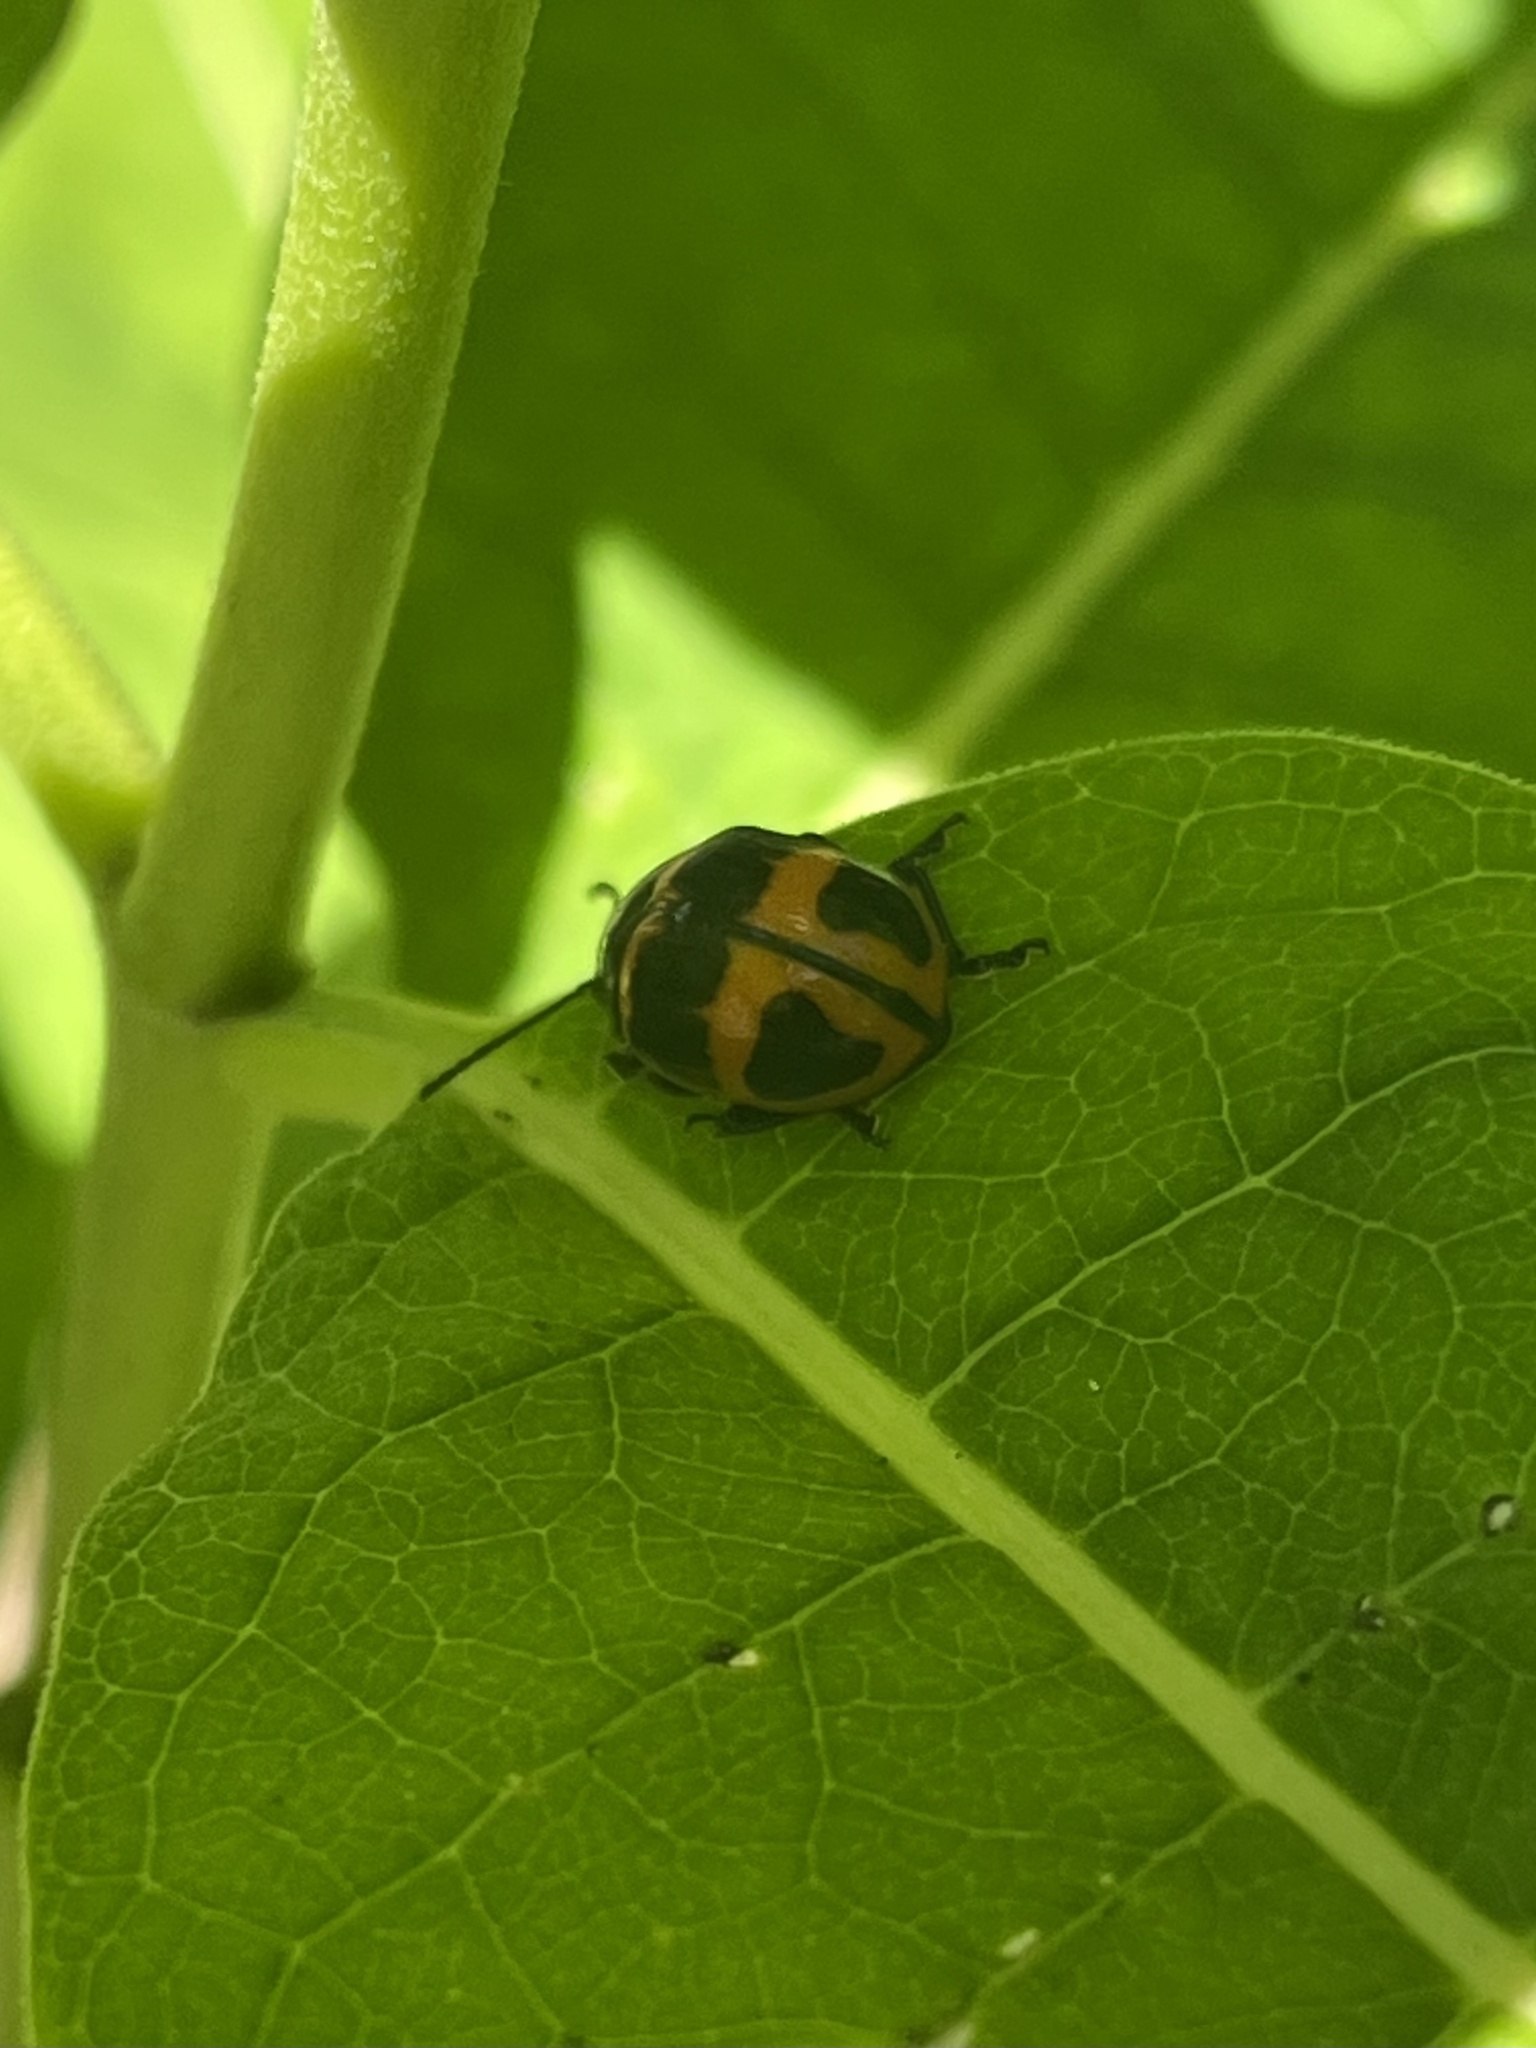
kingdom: Animalia
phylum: Arthropoda
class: Insecta
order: Coleoptera
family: Chrysomelidae
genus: Labidomera
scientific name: Labidomera clivicollis
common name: Swamp milkweed leaf beetle
